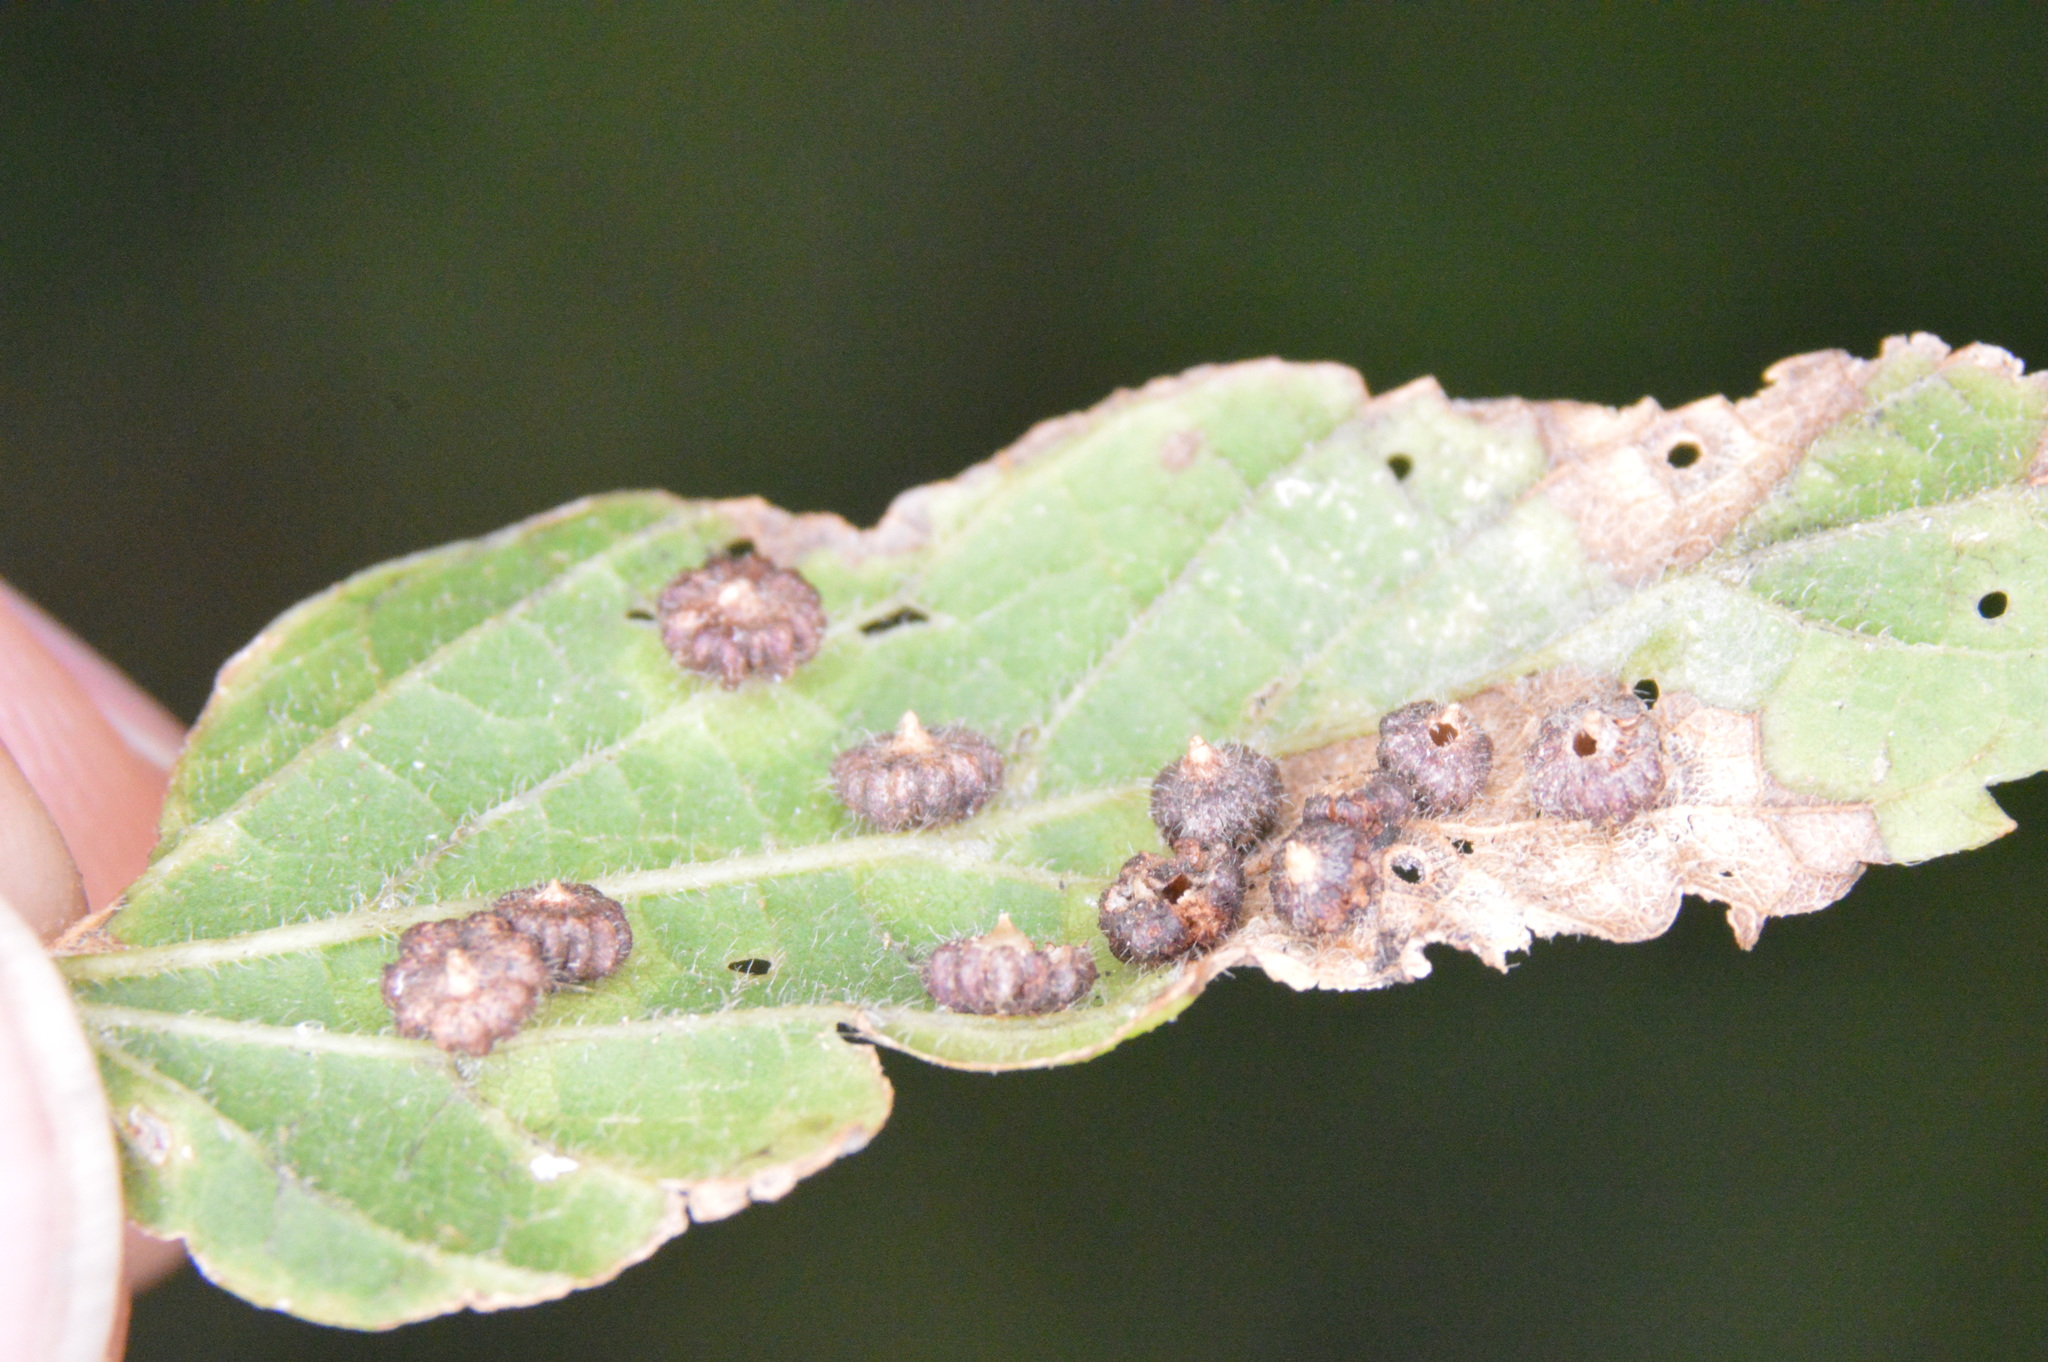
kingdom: Animalia
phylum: Arthropoda
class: Insecta
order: Diptera
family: Cecidomyiidae
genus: Celticecis
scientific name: Celticecis capsularis
